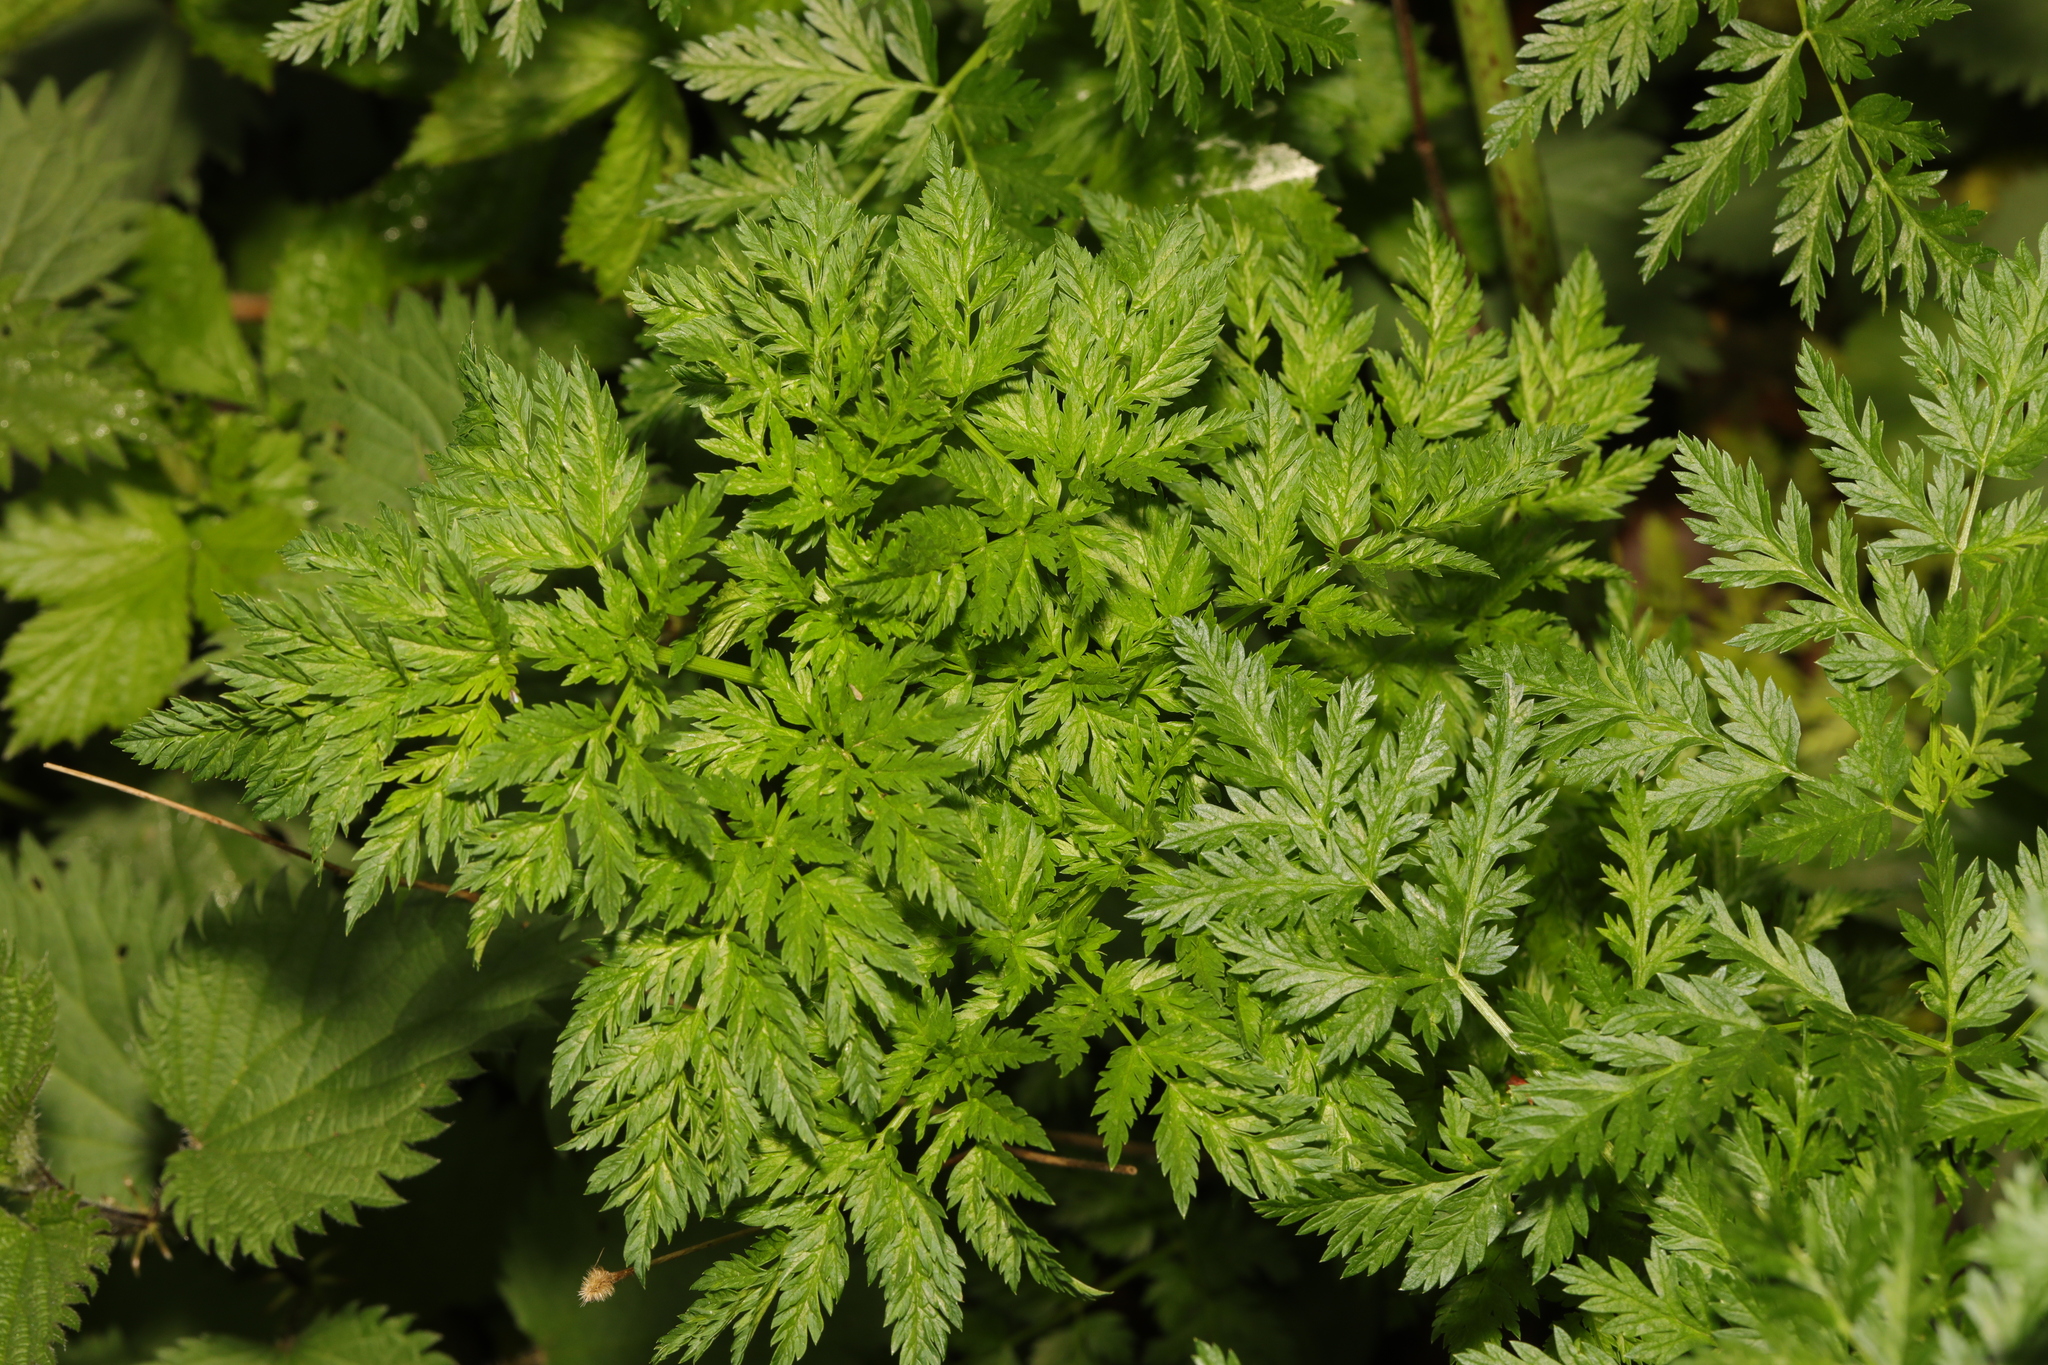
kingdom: Plantae
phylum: Tracheophyta
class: Magnoliopsida
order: Apiales
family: Apiaceae
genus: Anthriscus
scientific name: Anthriscus sylvestris
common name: Cow parsley
